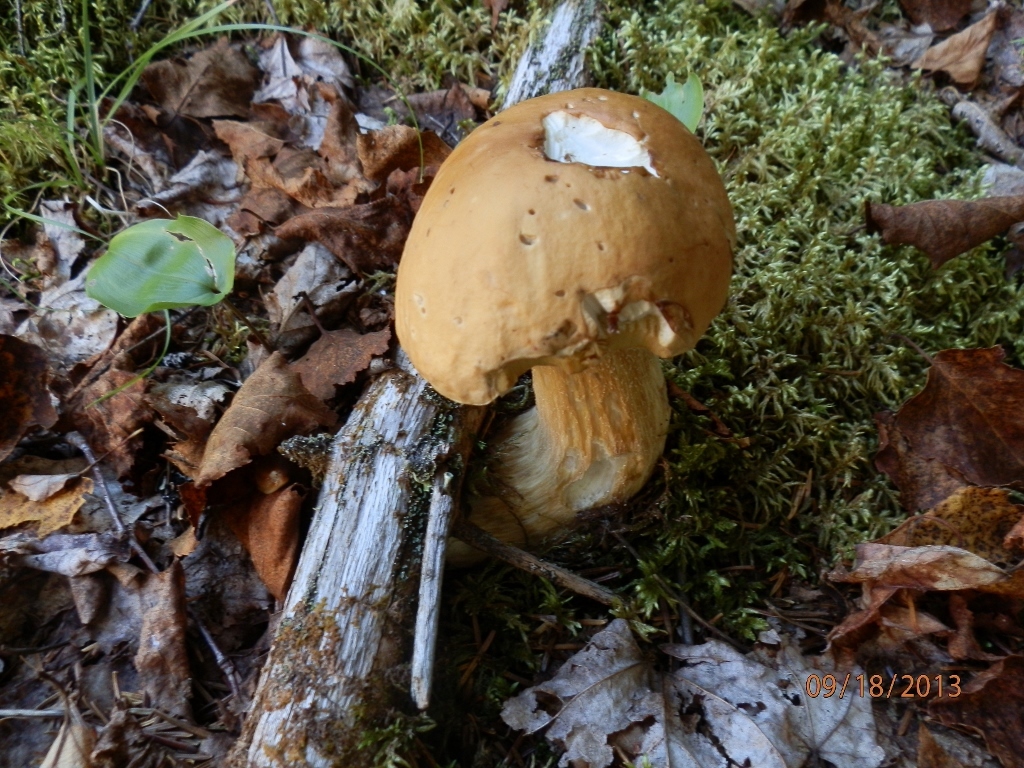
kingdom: Fungi
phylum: Basidiomycota
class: Agaricomycetes
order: Boletales
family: Boletaceae
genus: Boletus
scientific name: Boletus chippewaensis
